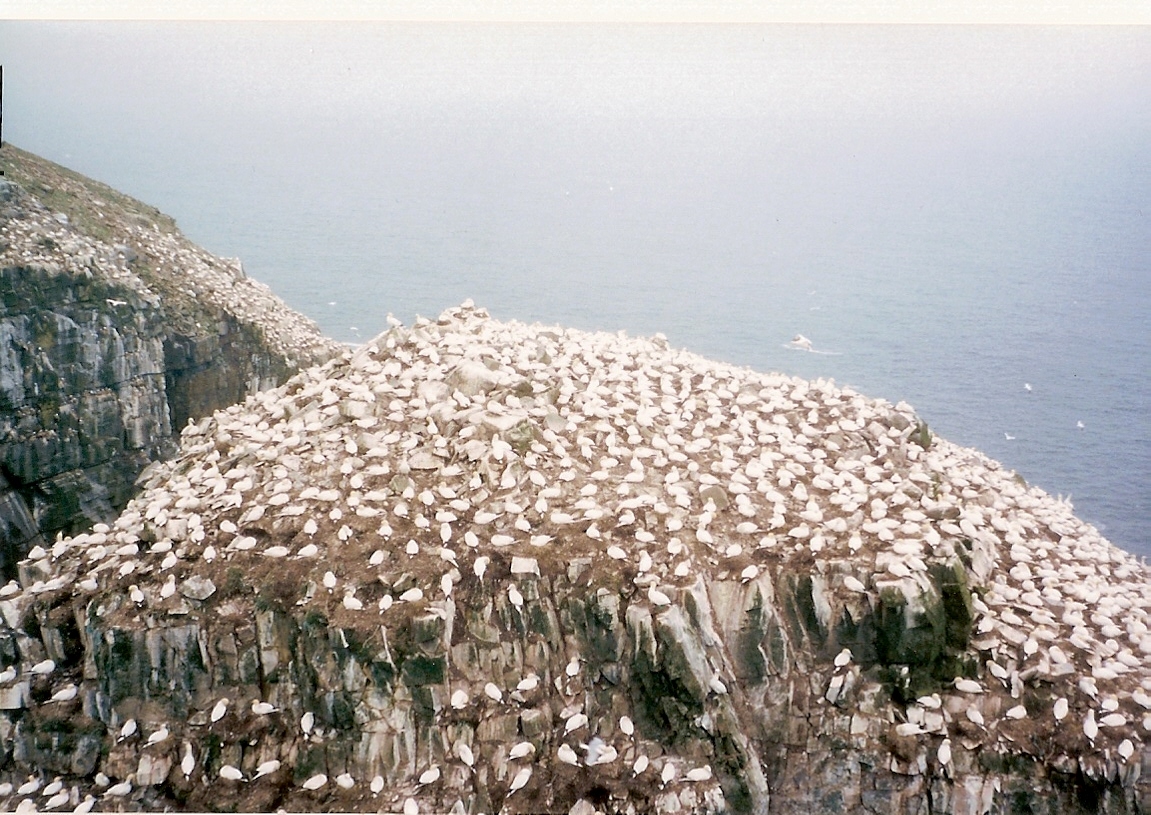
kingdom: Animalia
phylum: Chordata
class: Aves
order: Suliformes
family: Sulidae
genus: Morus
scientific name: Morus bassanus
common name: Northern gannet
